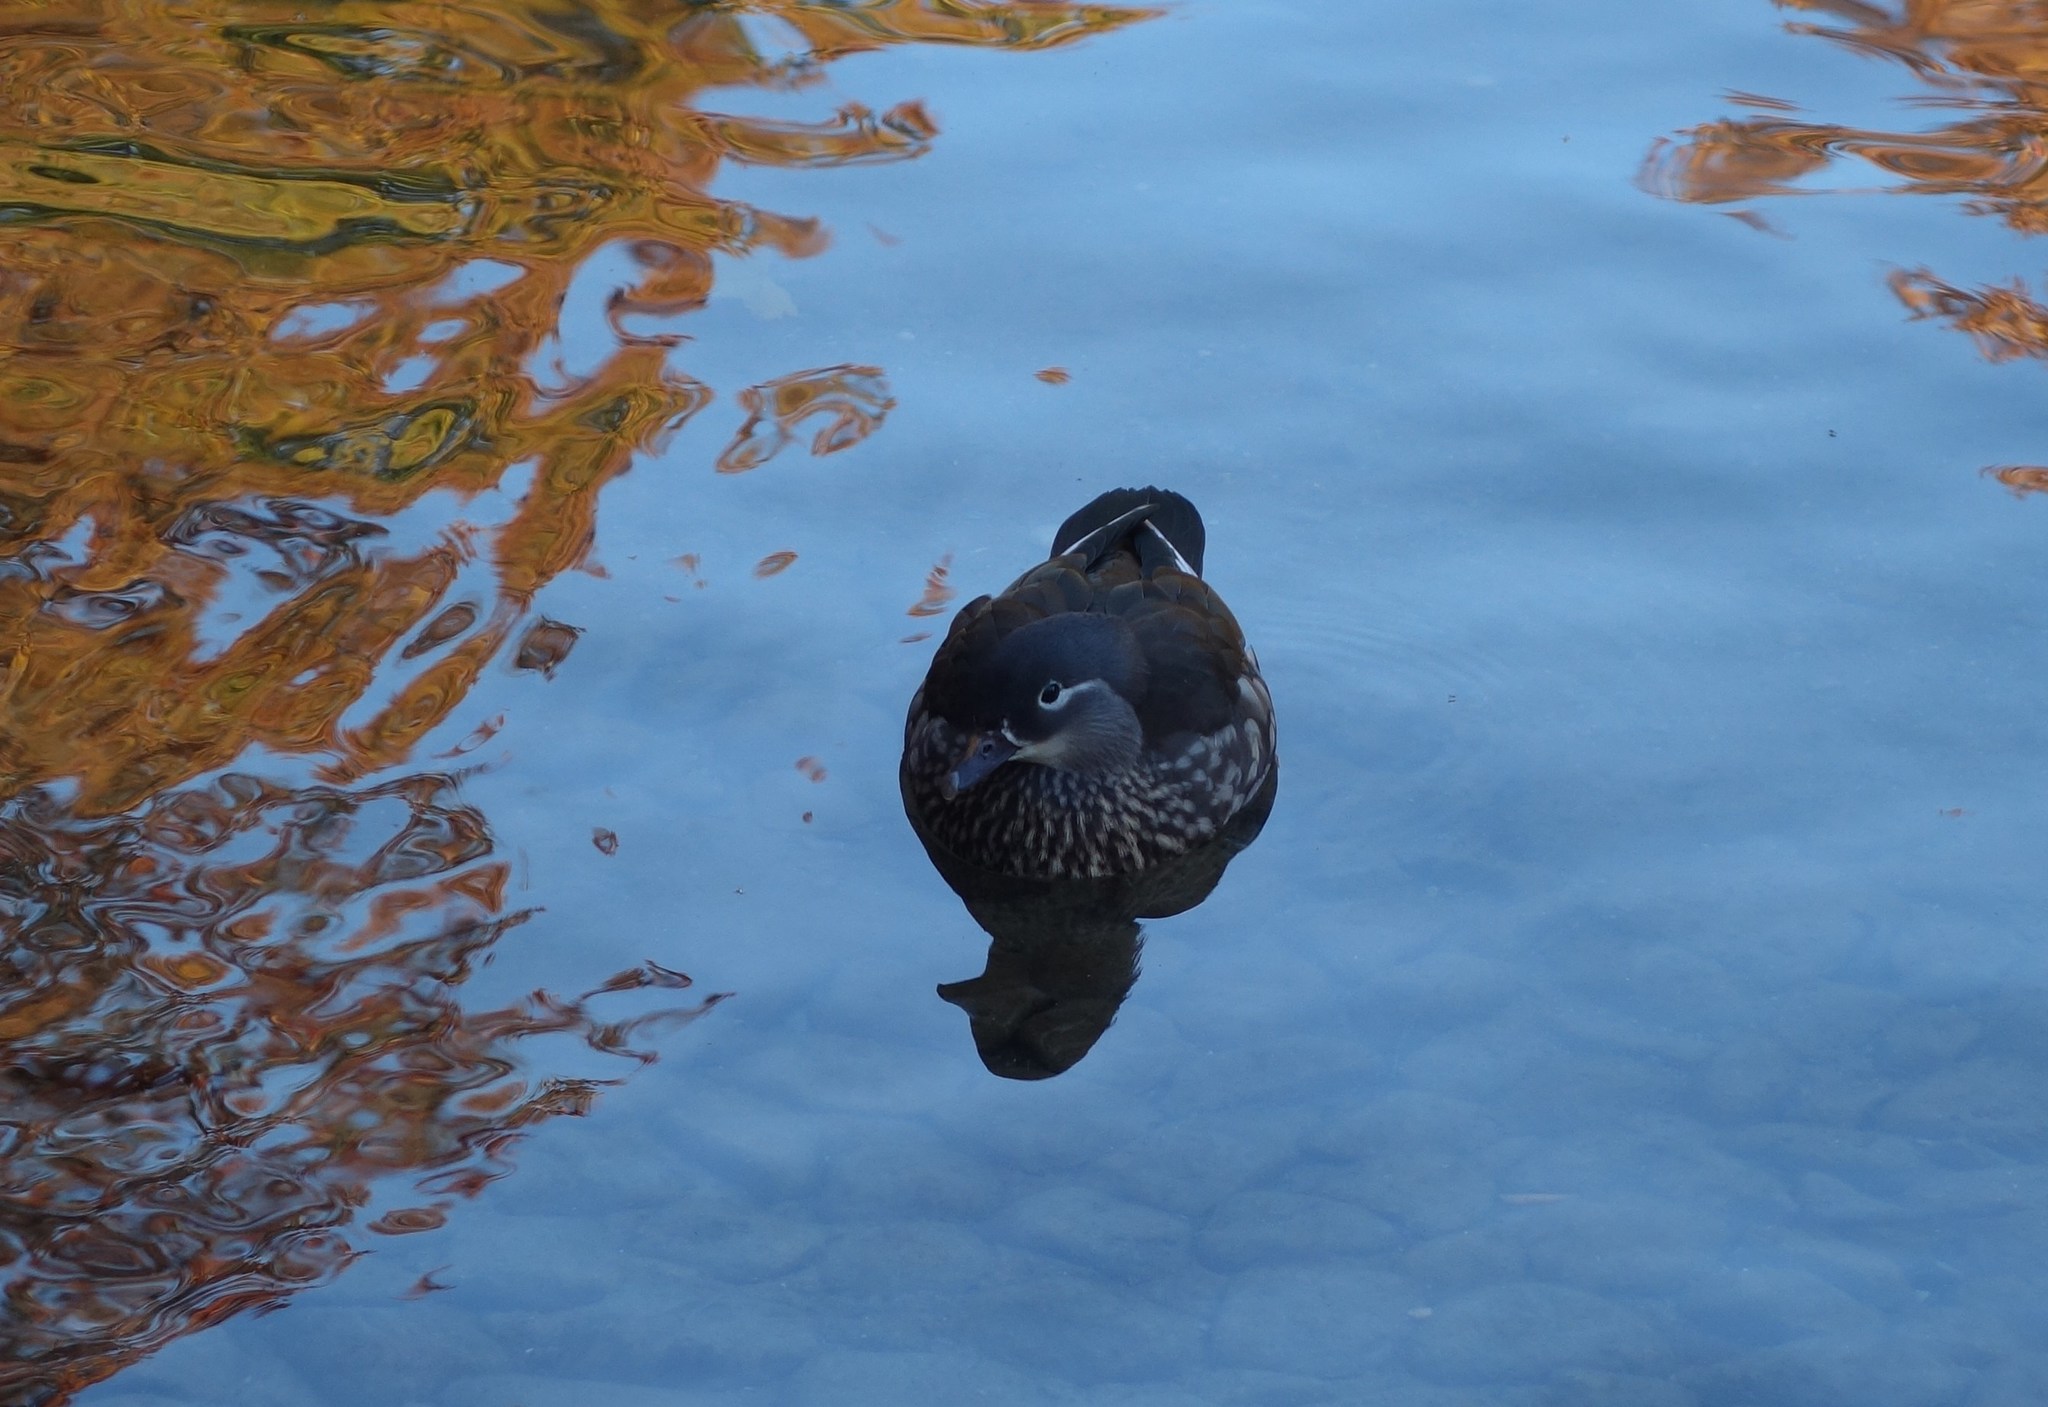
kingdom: Animalia
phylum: Chordata
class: Aves
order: Anseriformes
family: Anatidae
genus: Aix
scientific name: Aix galericulata
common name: Mandarin duck
